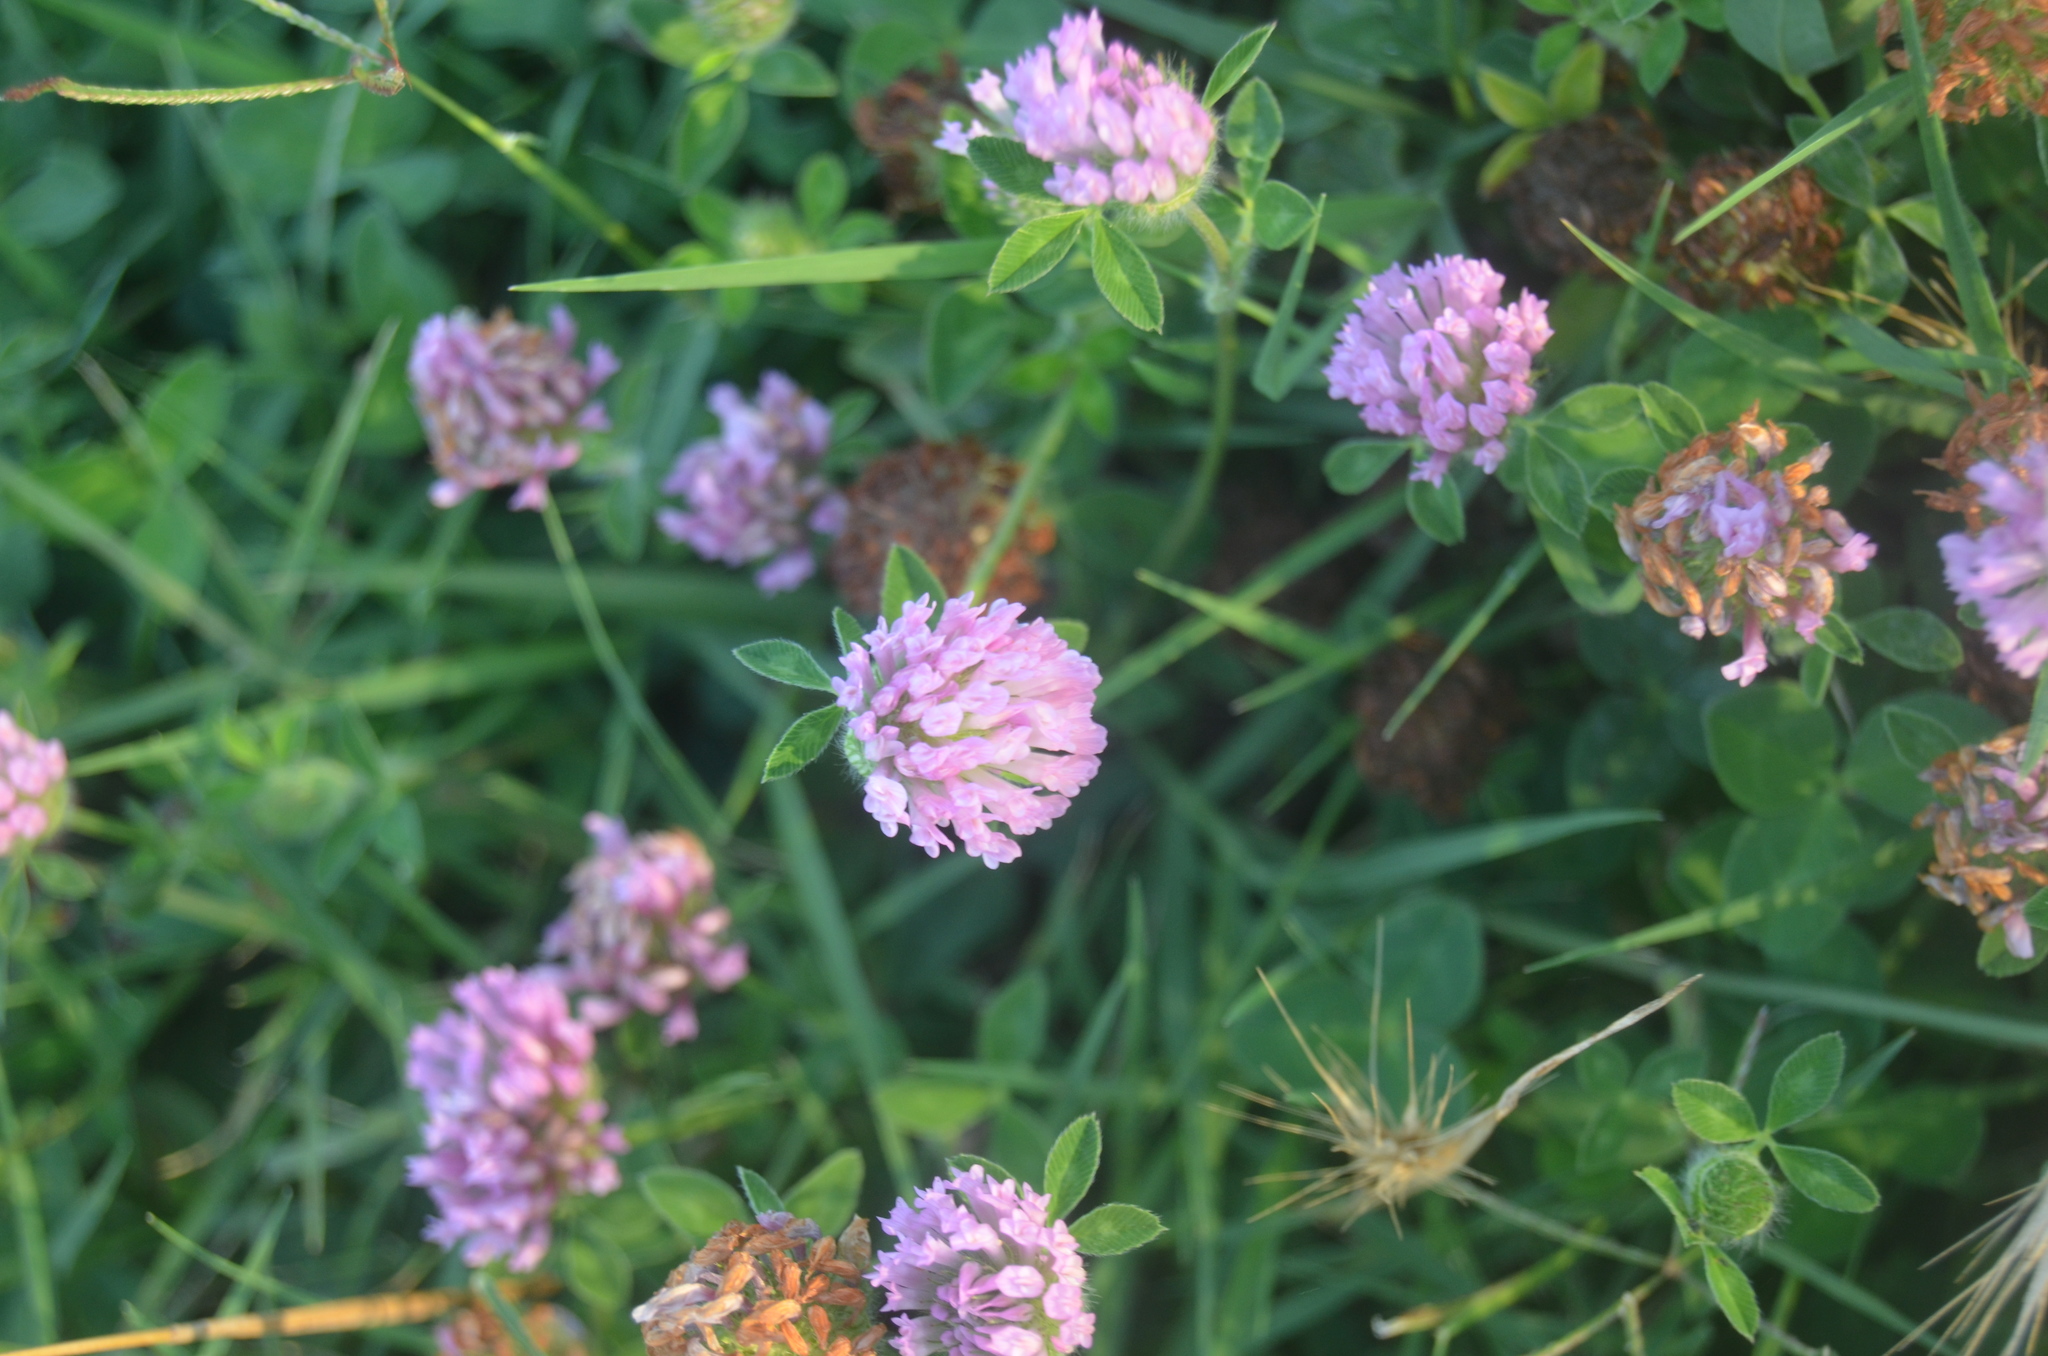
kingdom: Plantae
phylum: Tracheophyta
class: Magnoliopsida
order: Fabales
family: Fabaceae
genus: Trifolium
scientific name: Trifolium pratense
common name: Red clover
